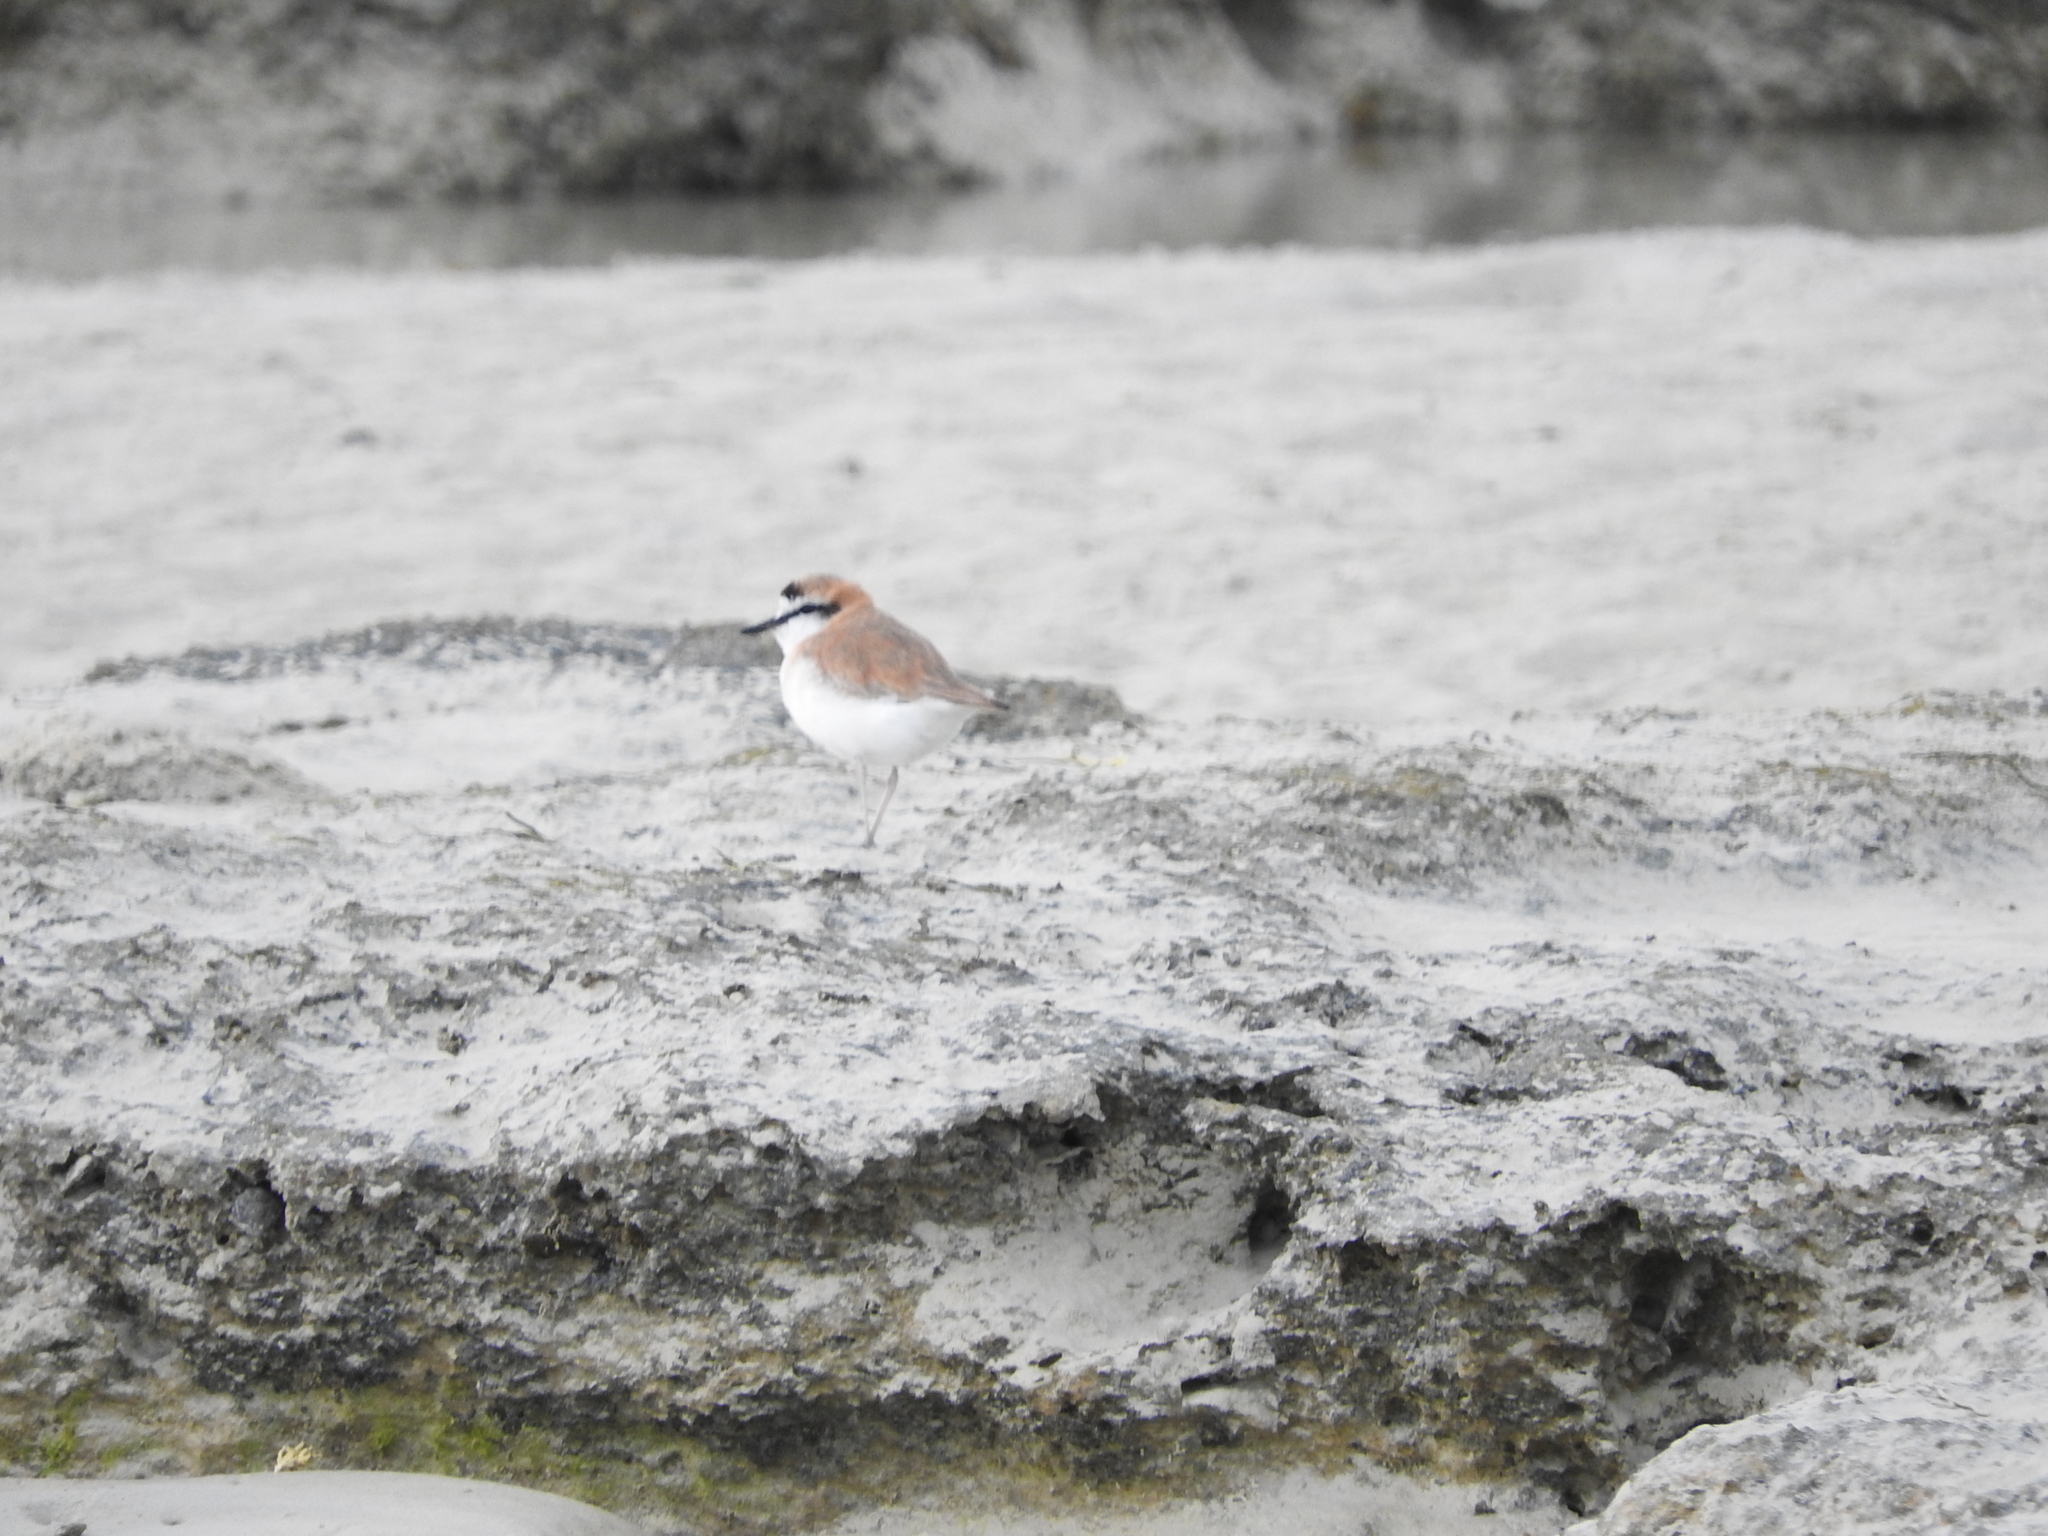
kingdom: Animalia
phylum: Chordata
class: Aves
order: Charadriiformes
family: Charadriidae
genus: Anarhynchus
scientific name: Anarhynchus
